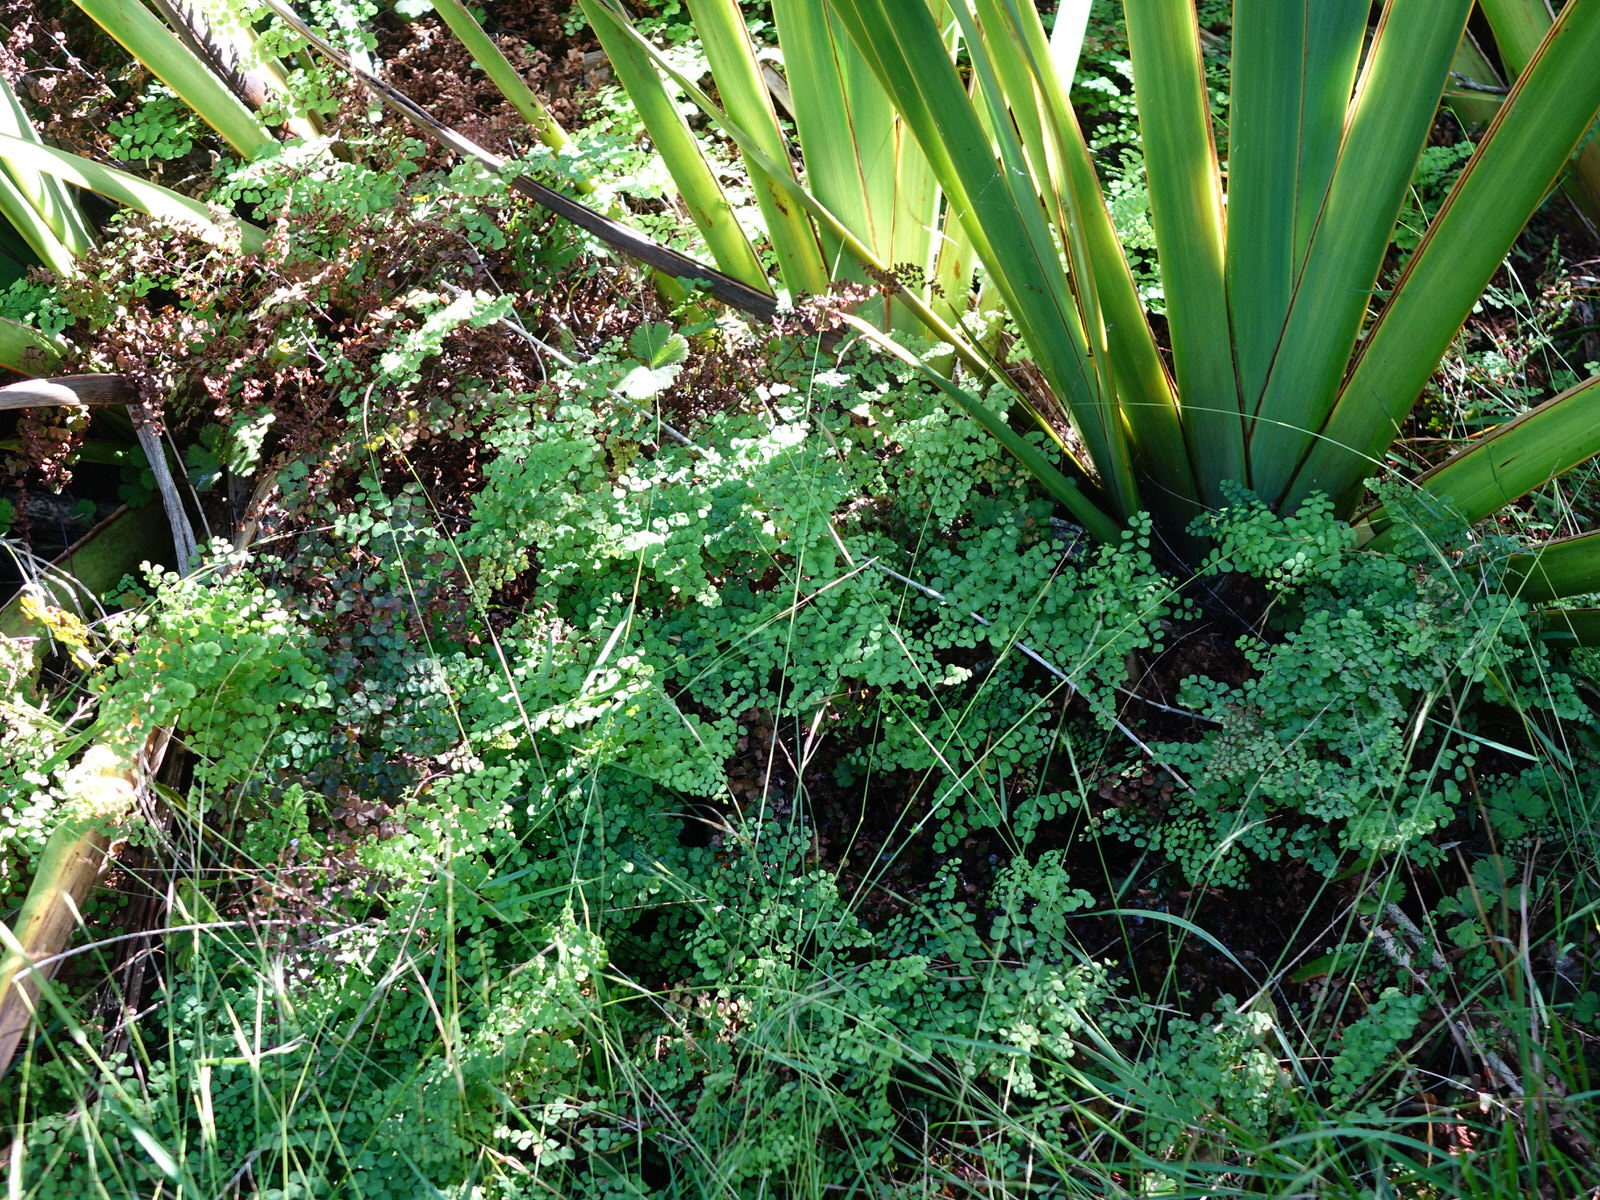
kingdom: Plantae
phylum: Tracheophyta
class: Polypodiopsida
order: Polypodiales
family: Pteridaceae
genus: Adiantum
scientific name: Adiantum aethiopicum
